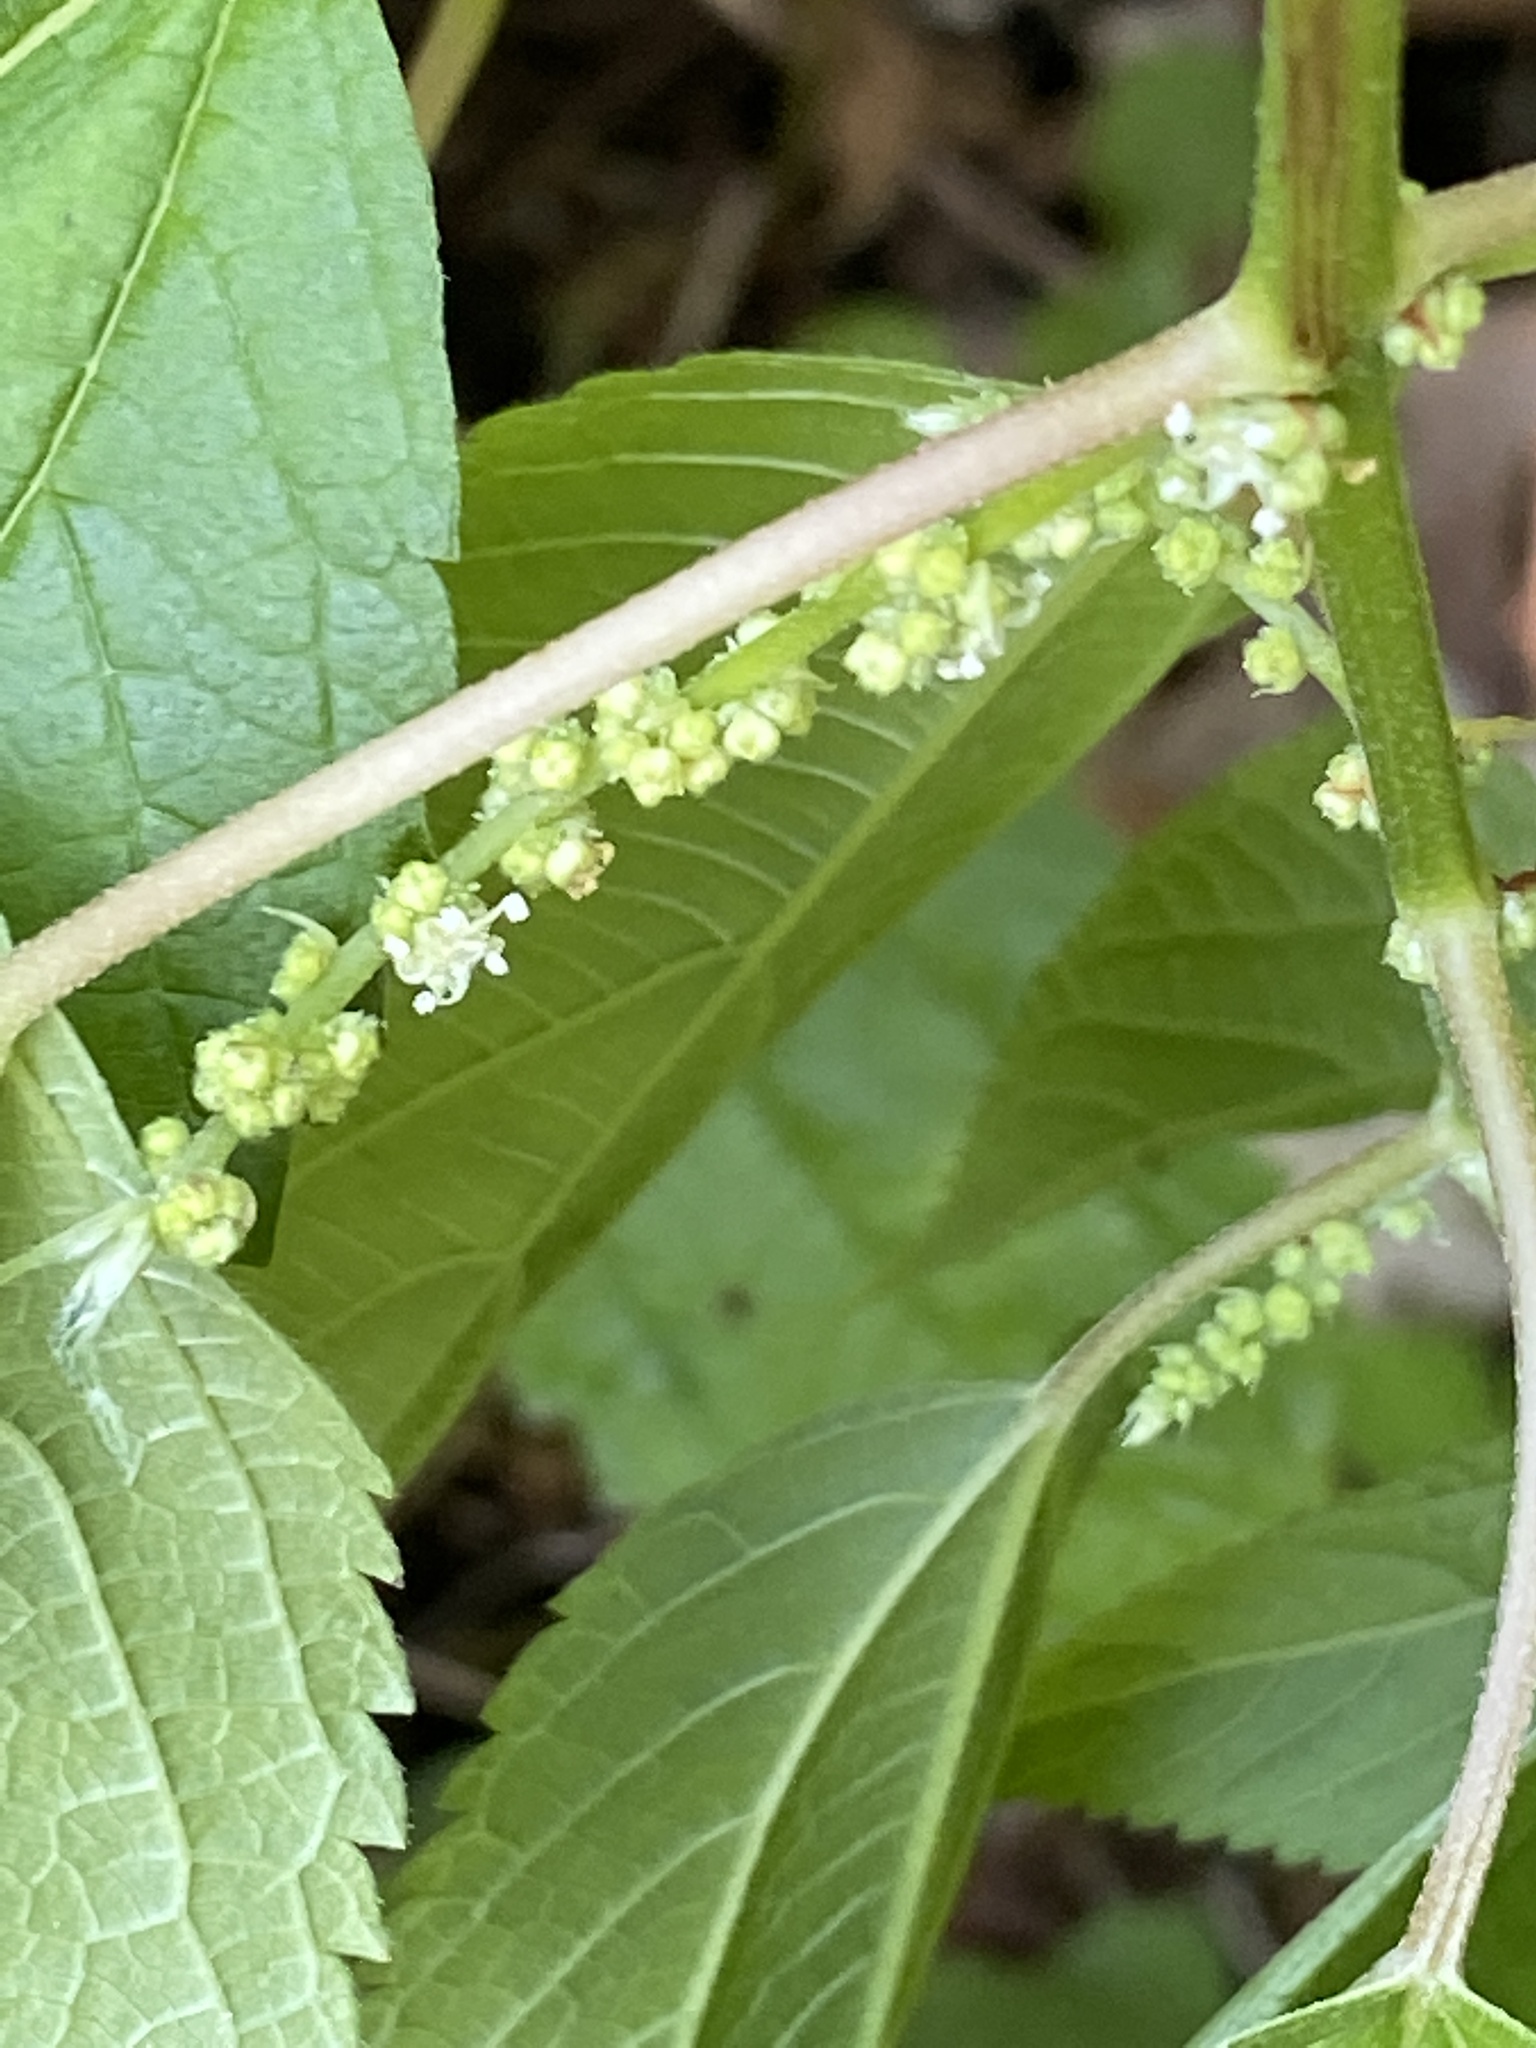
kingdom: Plantae
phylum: Tracheophyta
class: Magnoliopsida
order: Rosales
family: Urticaceae
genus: Boehmeria
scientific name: Boehmeria cylindrica
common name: Bog-hemp
